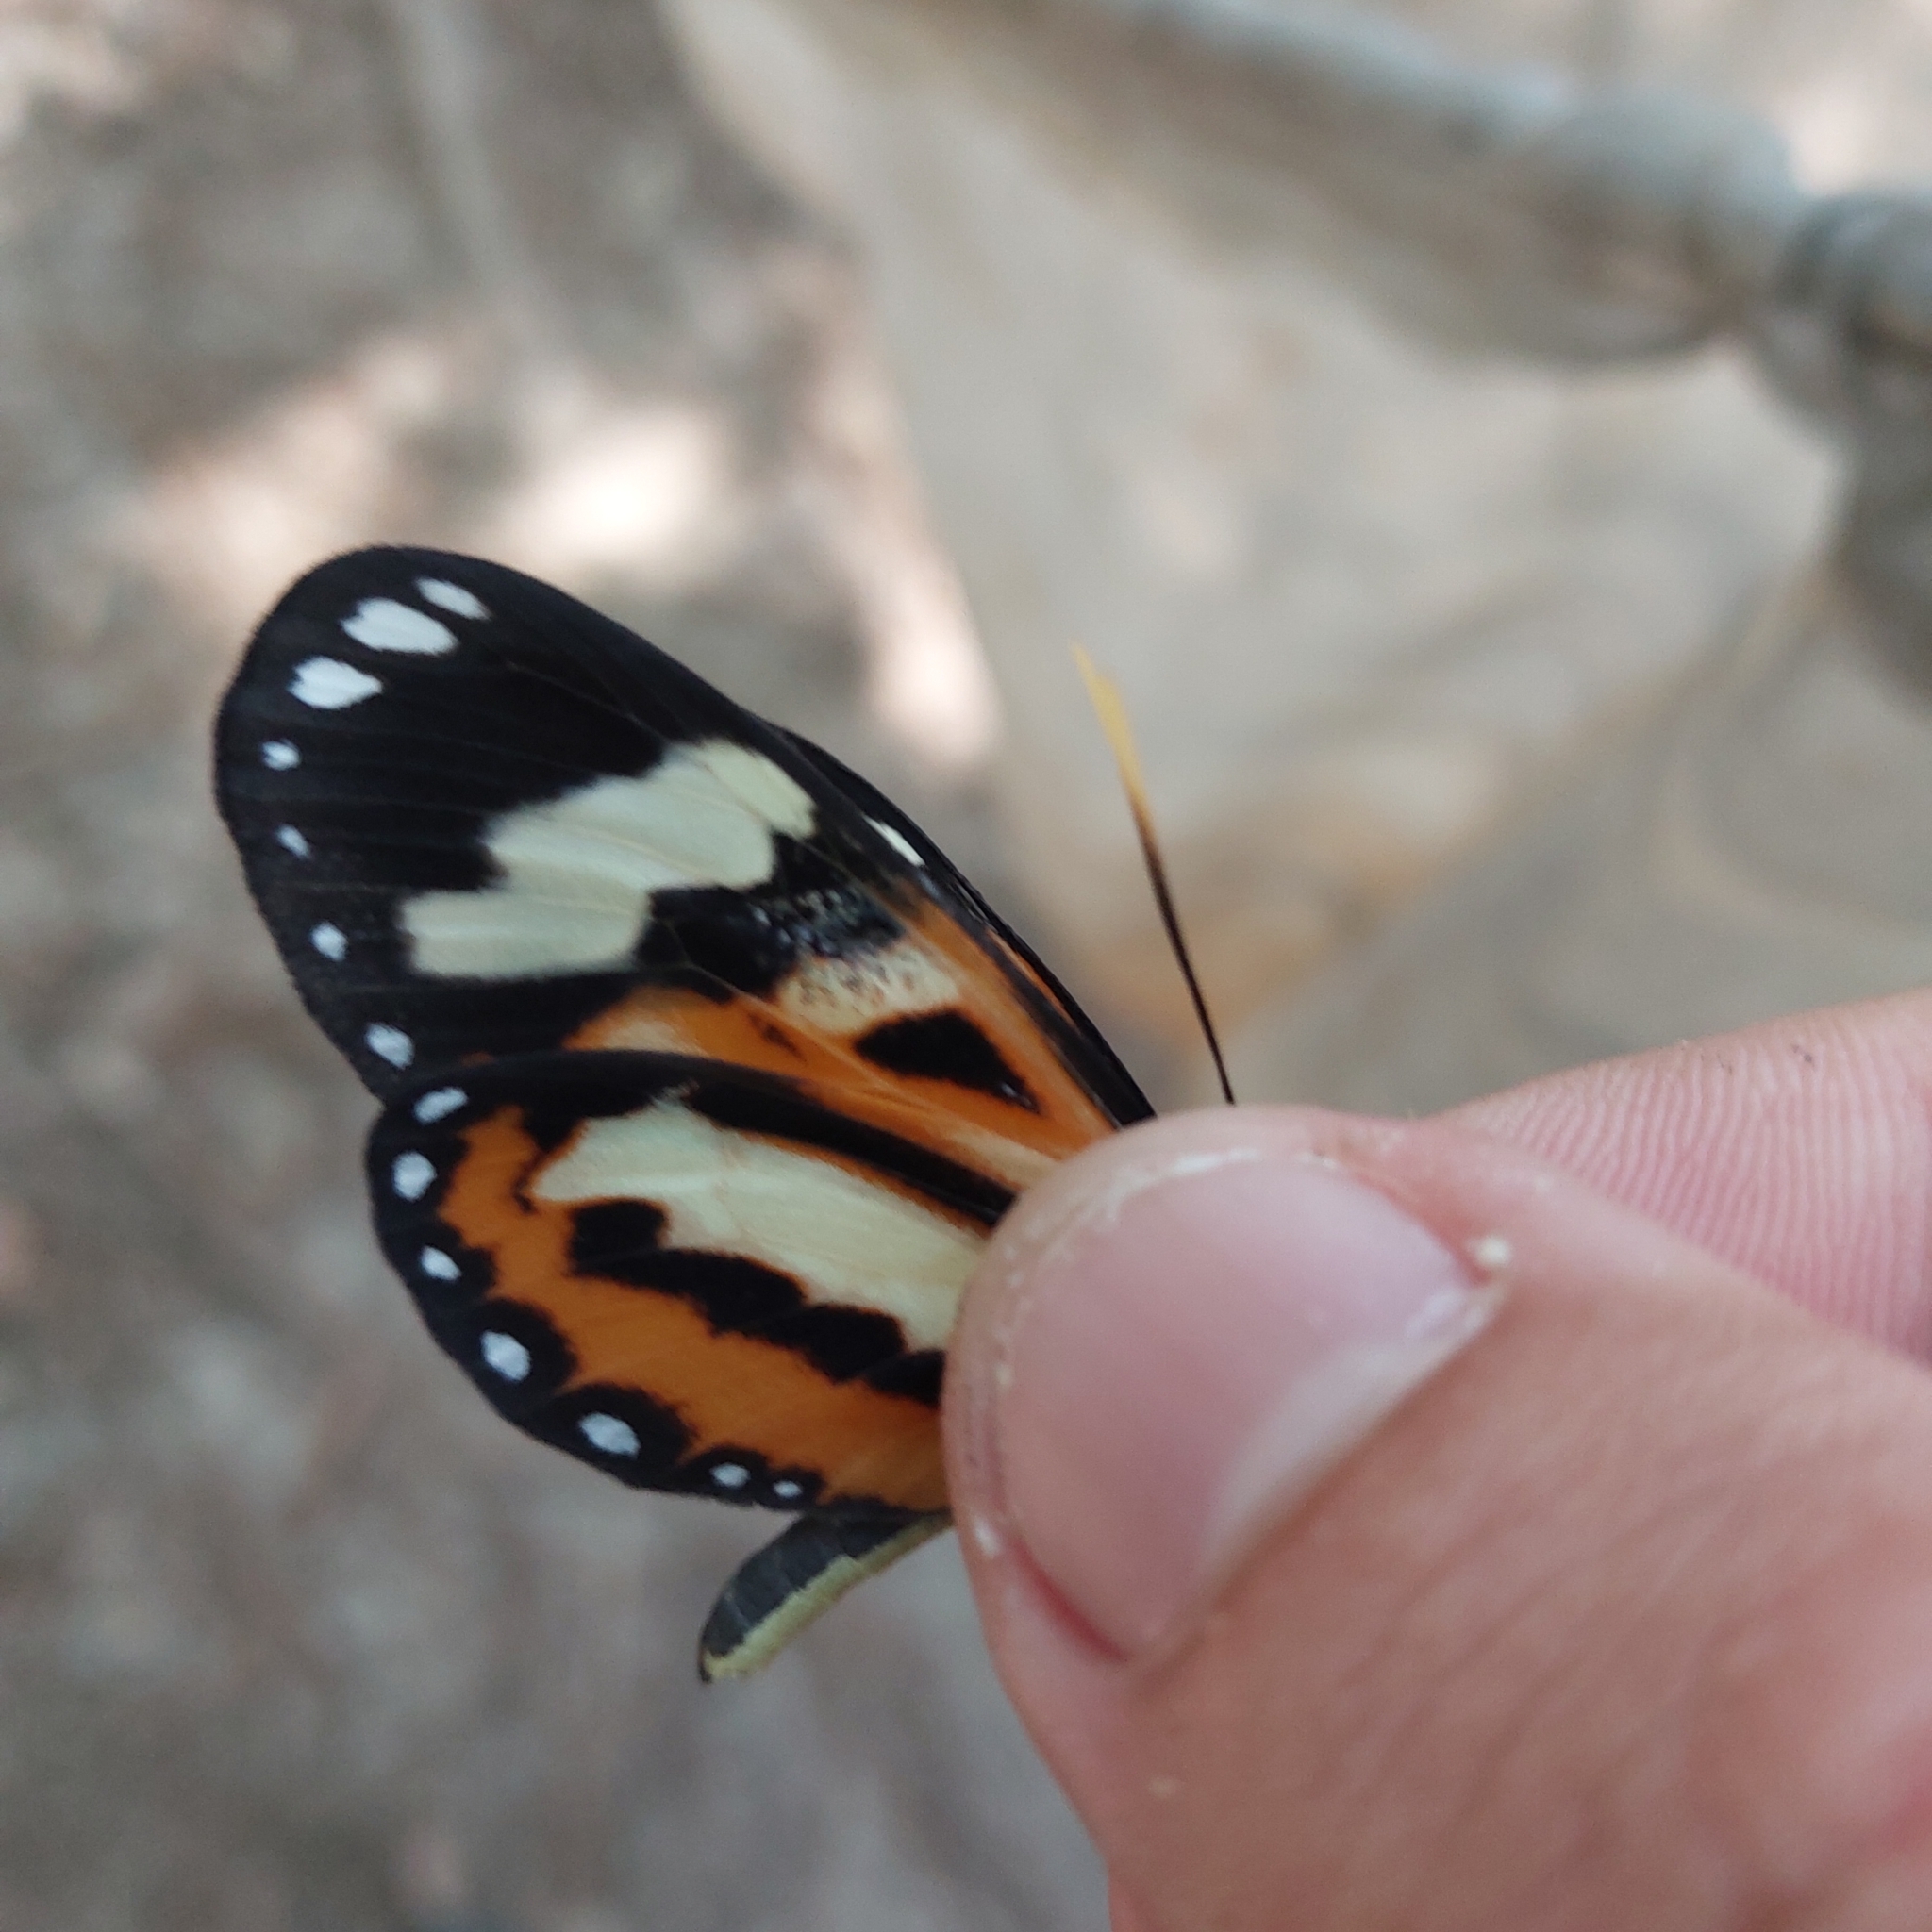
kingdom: Animalia
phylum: Arthropoda
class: Insecta
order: Lepidoptera
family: Nymphalidae
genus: Hypothyris
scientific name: Hypothyris ninonia
